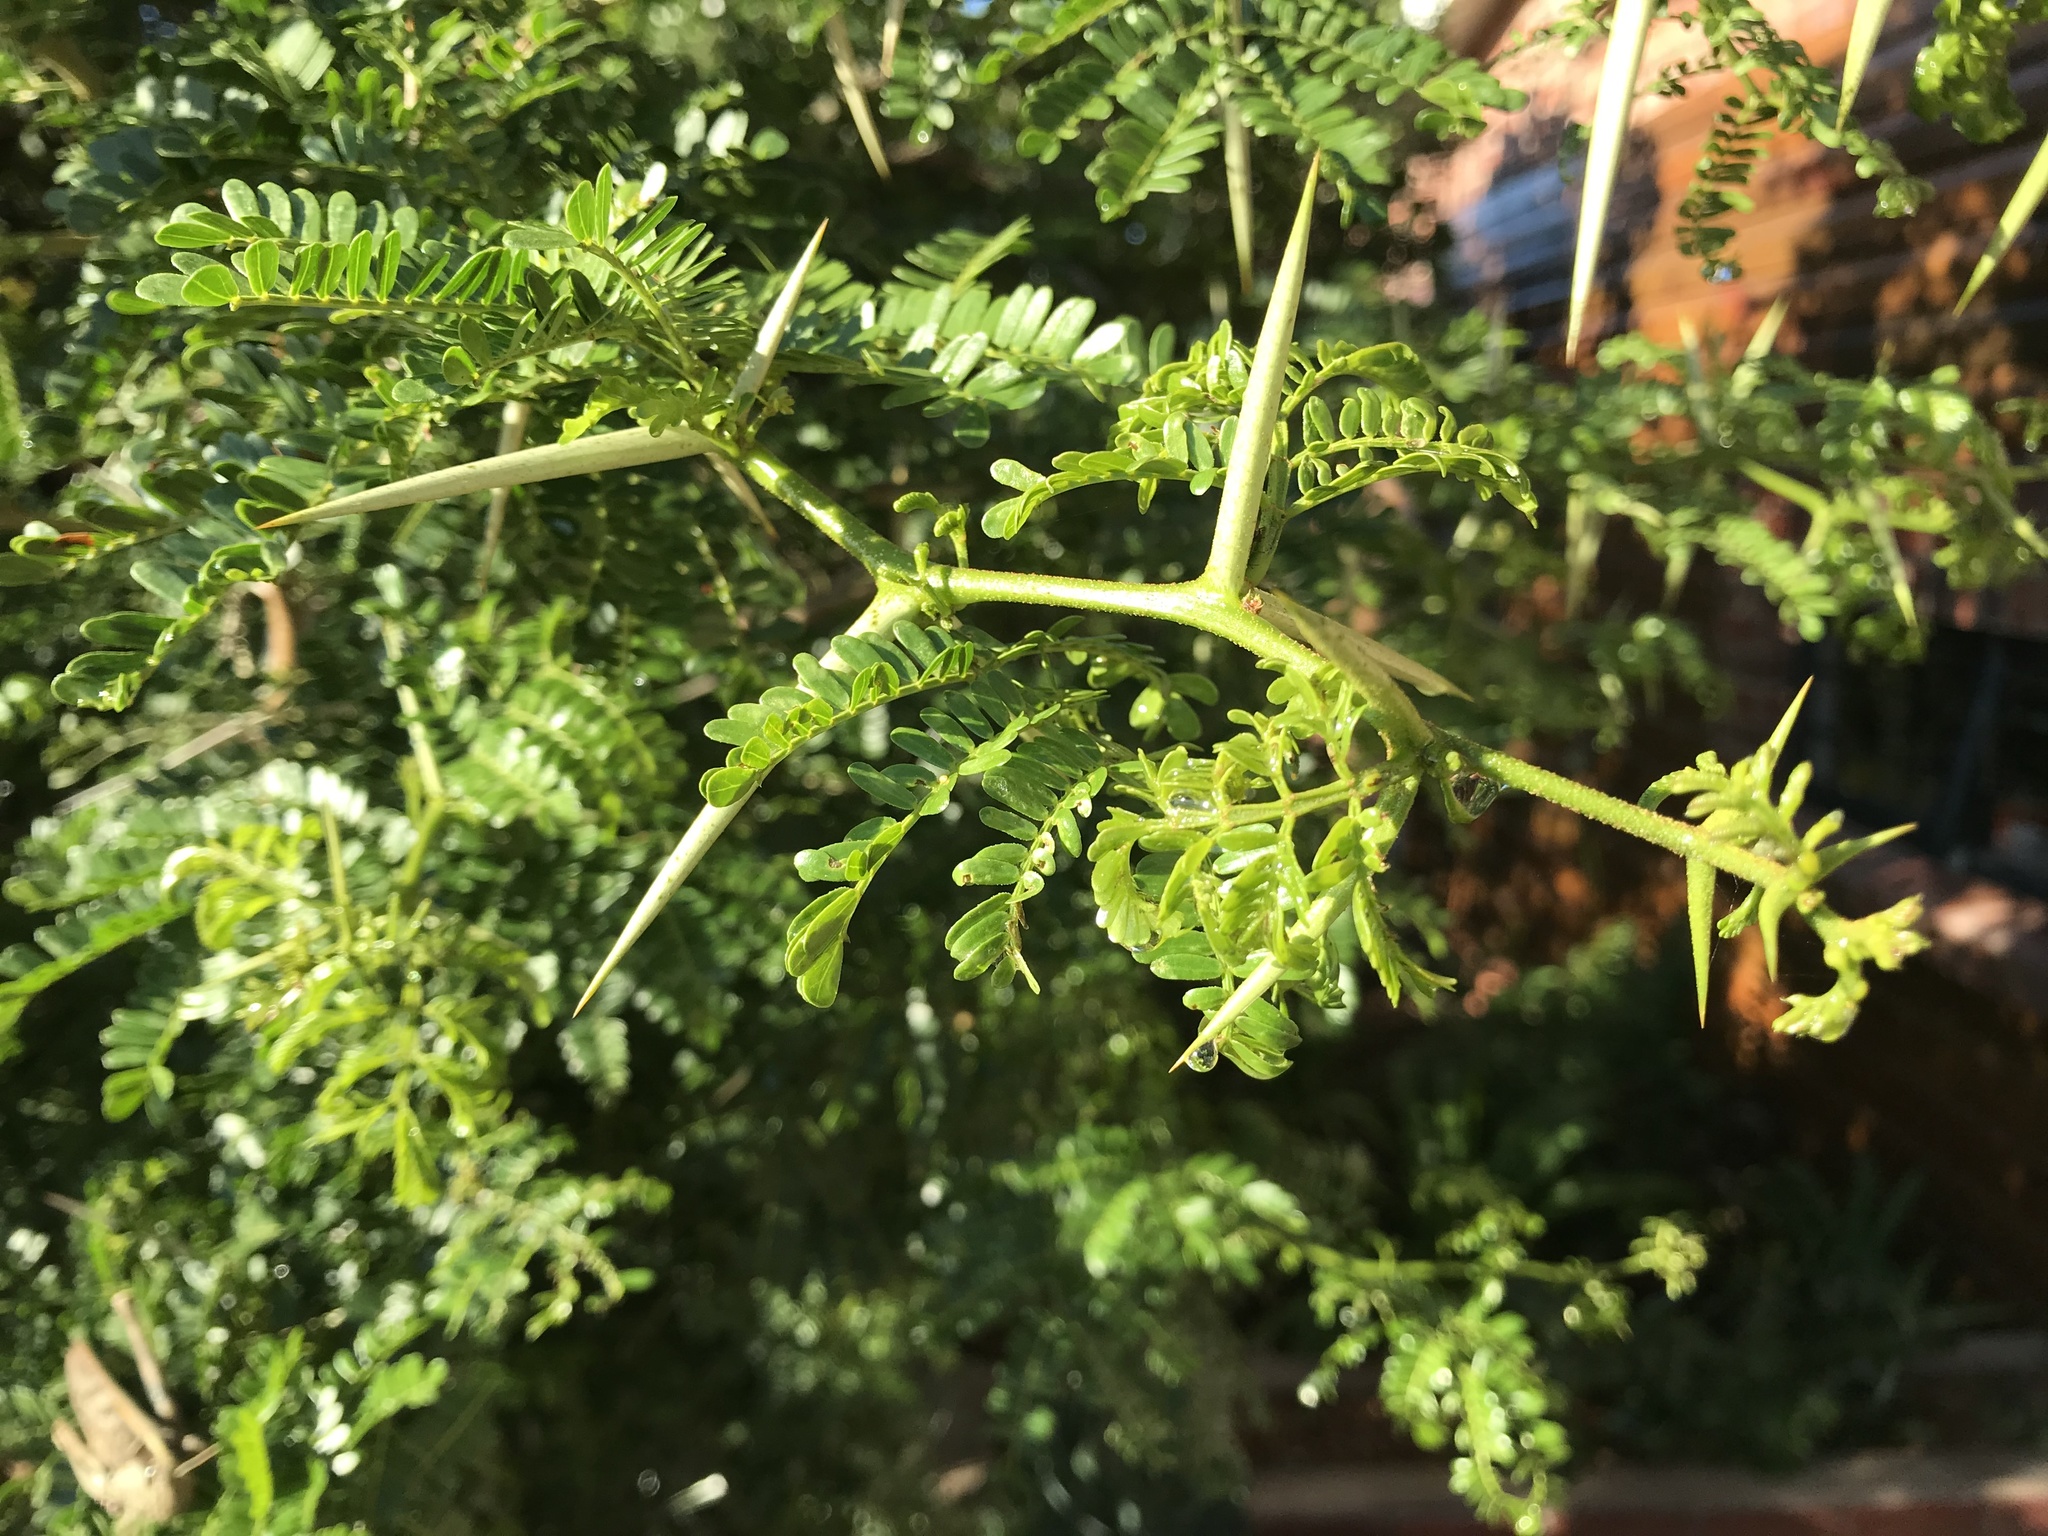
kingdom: Plantae
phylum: Tracheophyta
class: Magnoliopsida
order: Fabales
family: Fabaceae
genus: Vachellia
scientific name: Vachellia karroo
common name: Sweet thorn
